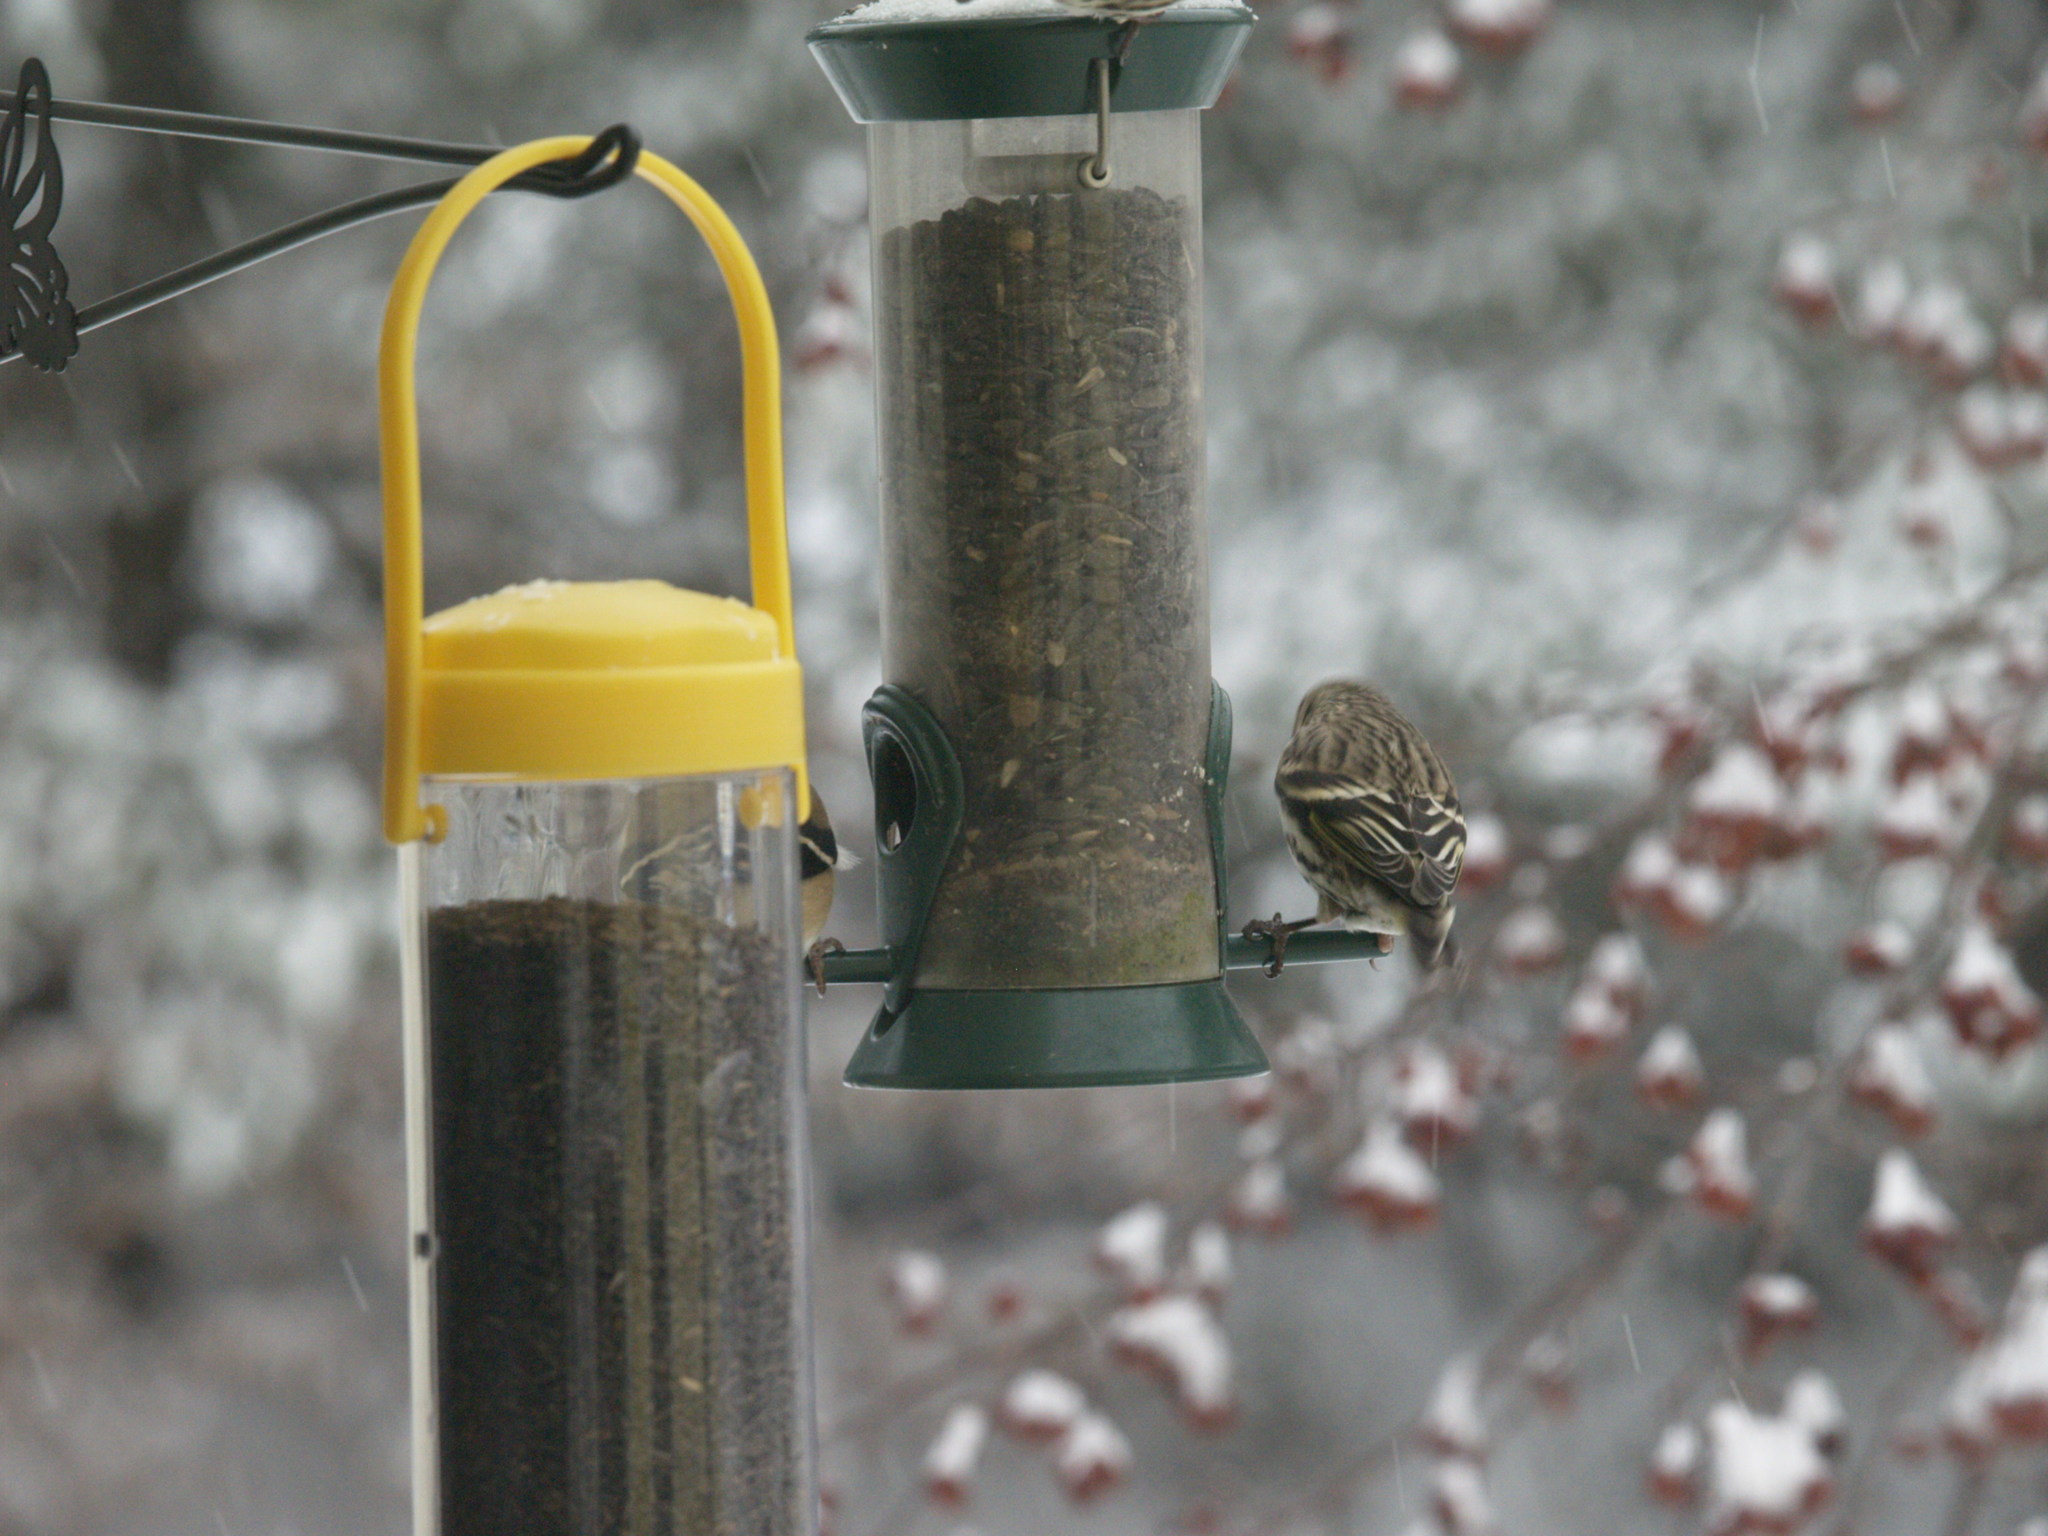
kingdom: Animalia
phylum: Chordata
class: Aves
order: Passeriformes
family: Fringillidae
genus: Spinus
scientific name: Spinus pinus
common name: Pine siskin
